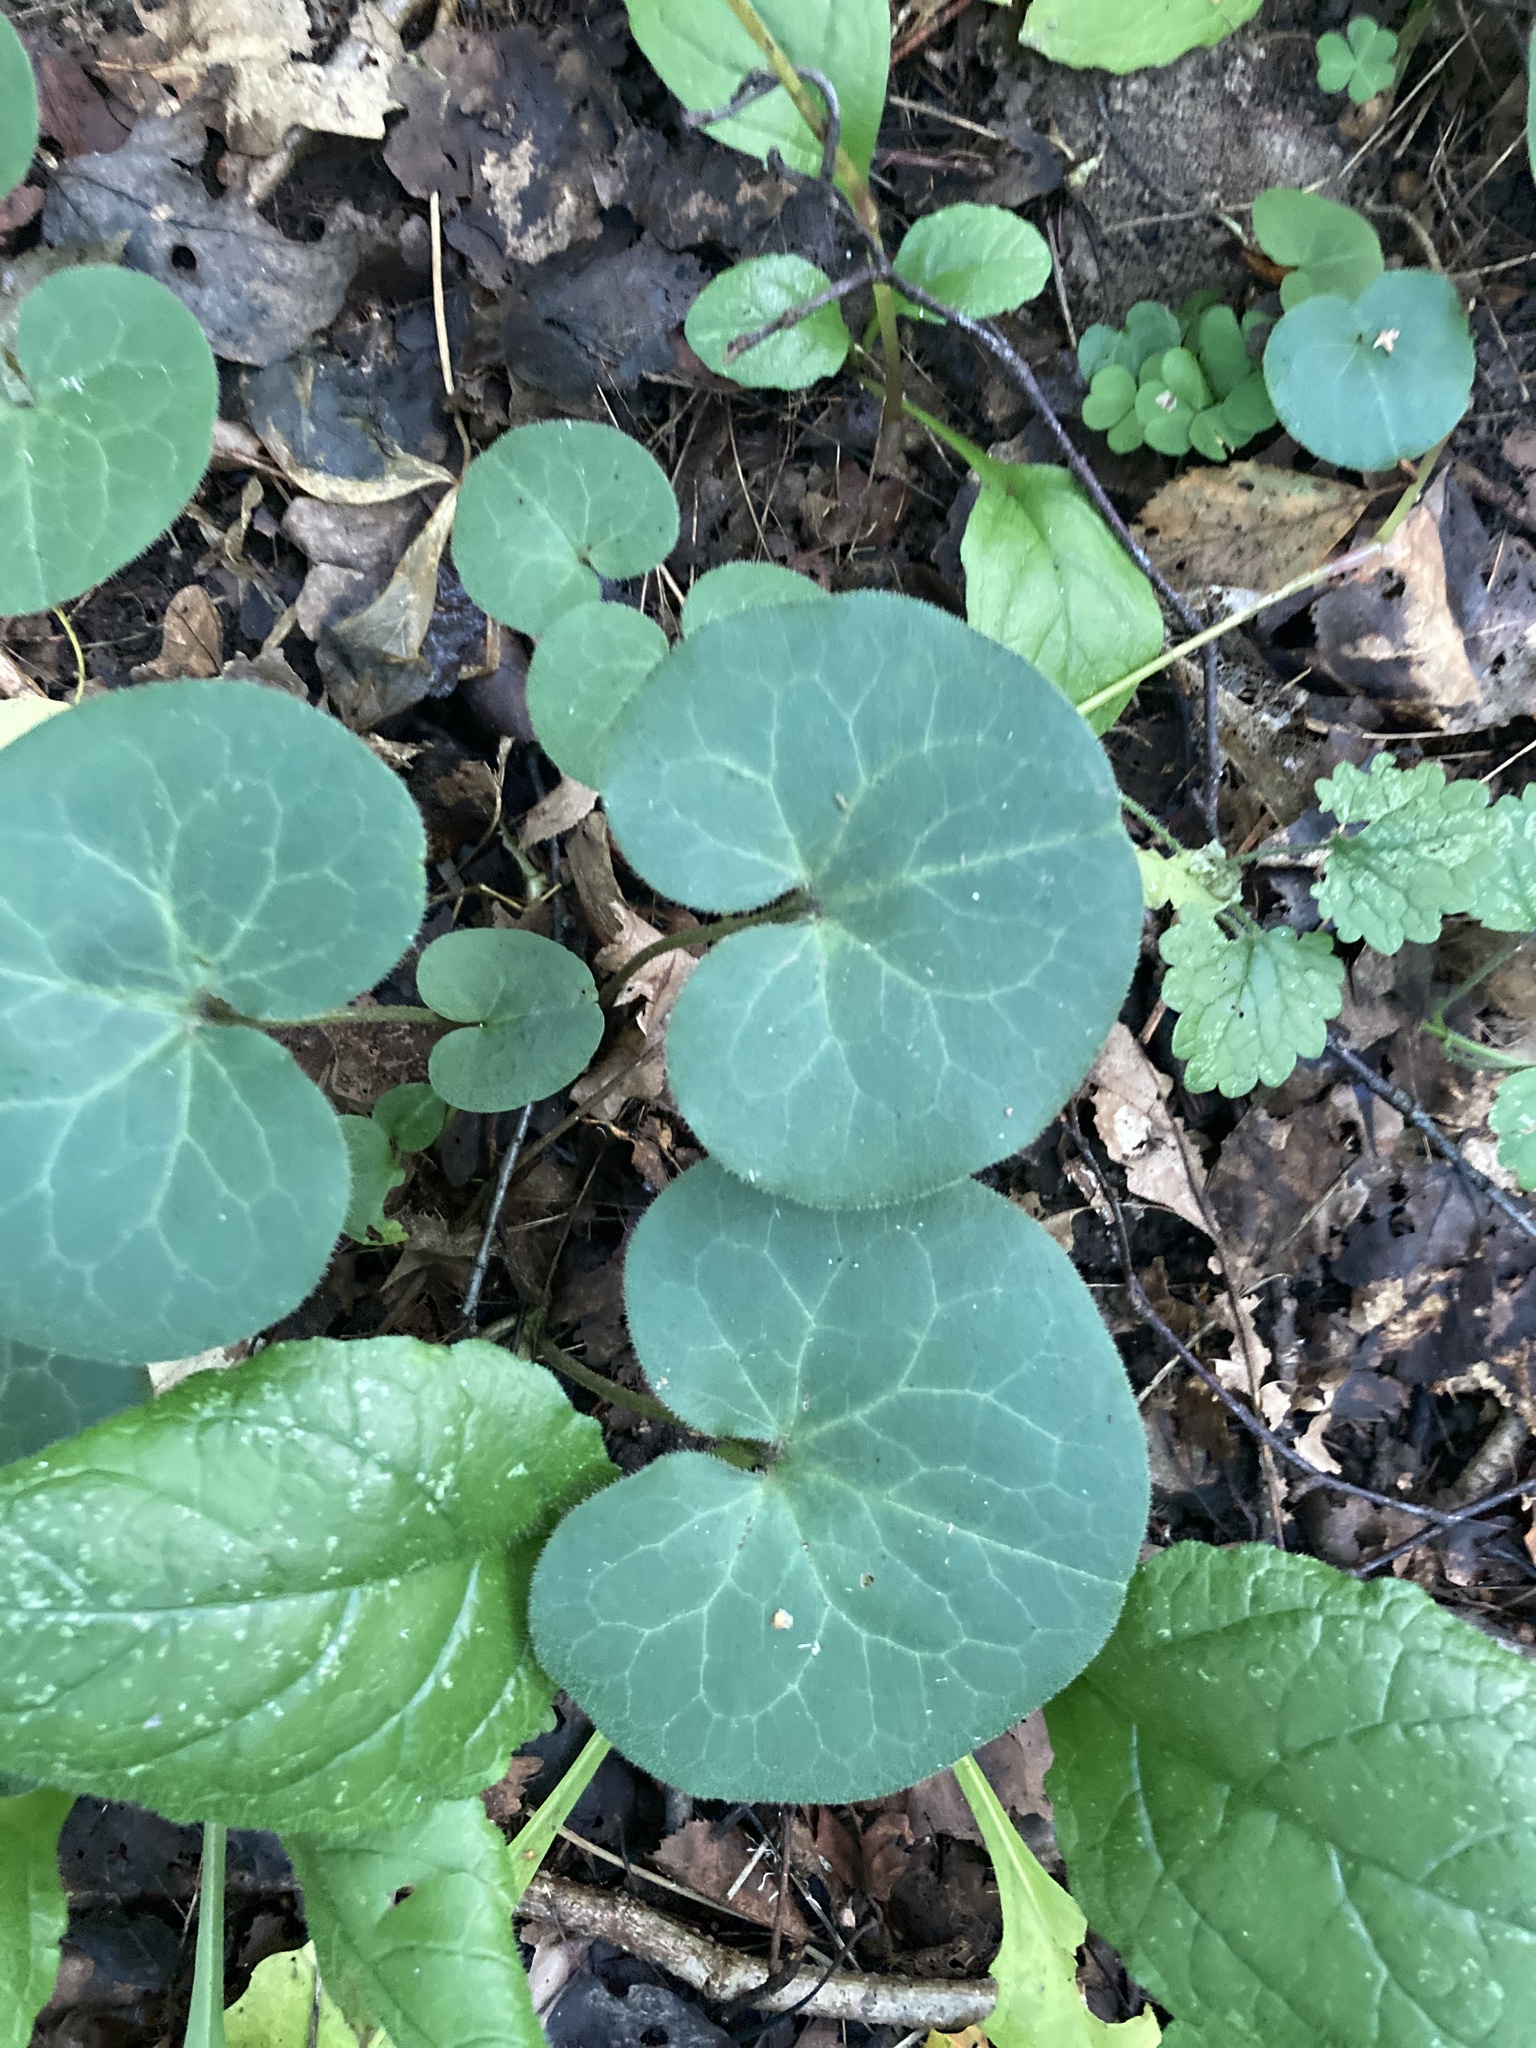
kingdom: Plantae
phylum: Tracheophyta
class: Magnoliopsida
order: Piperales
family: Aristolochiaceae
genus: Asarum
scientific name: Asarum europaeum
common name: Asarabacca
